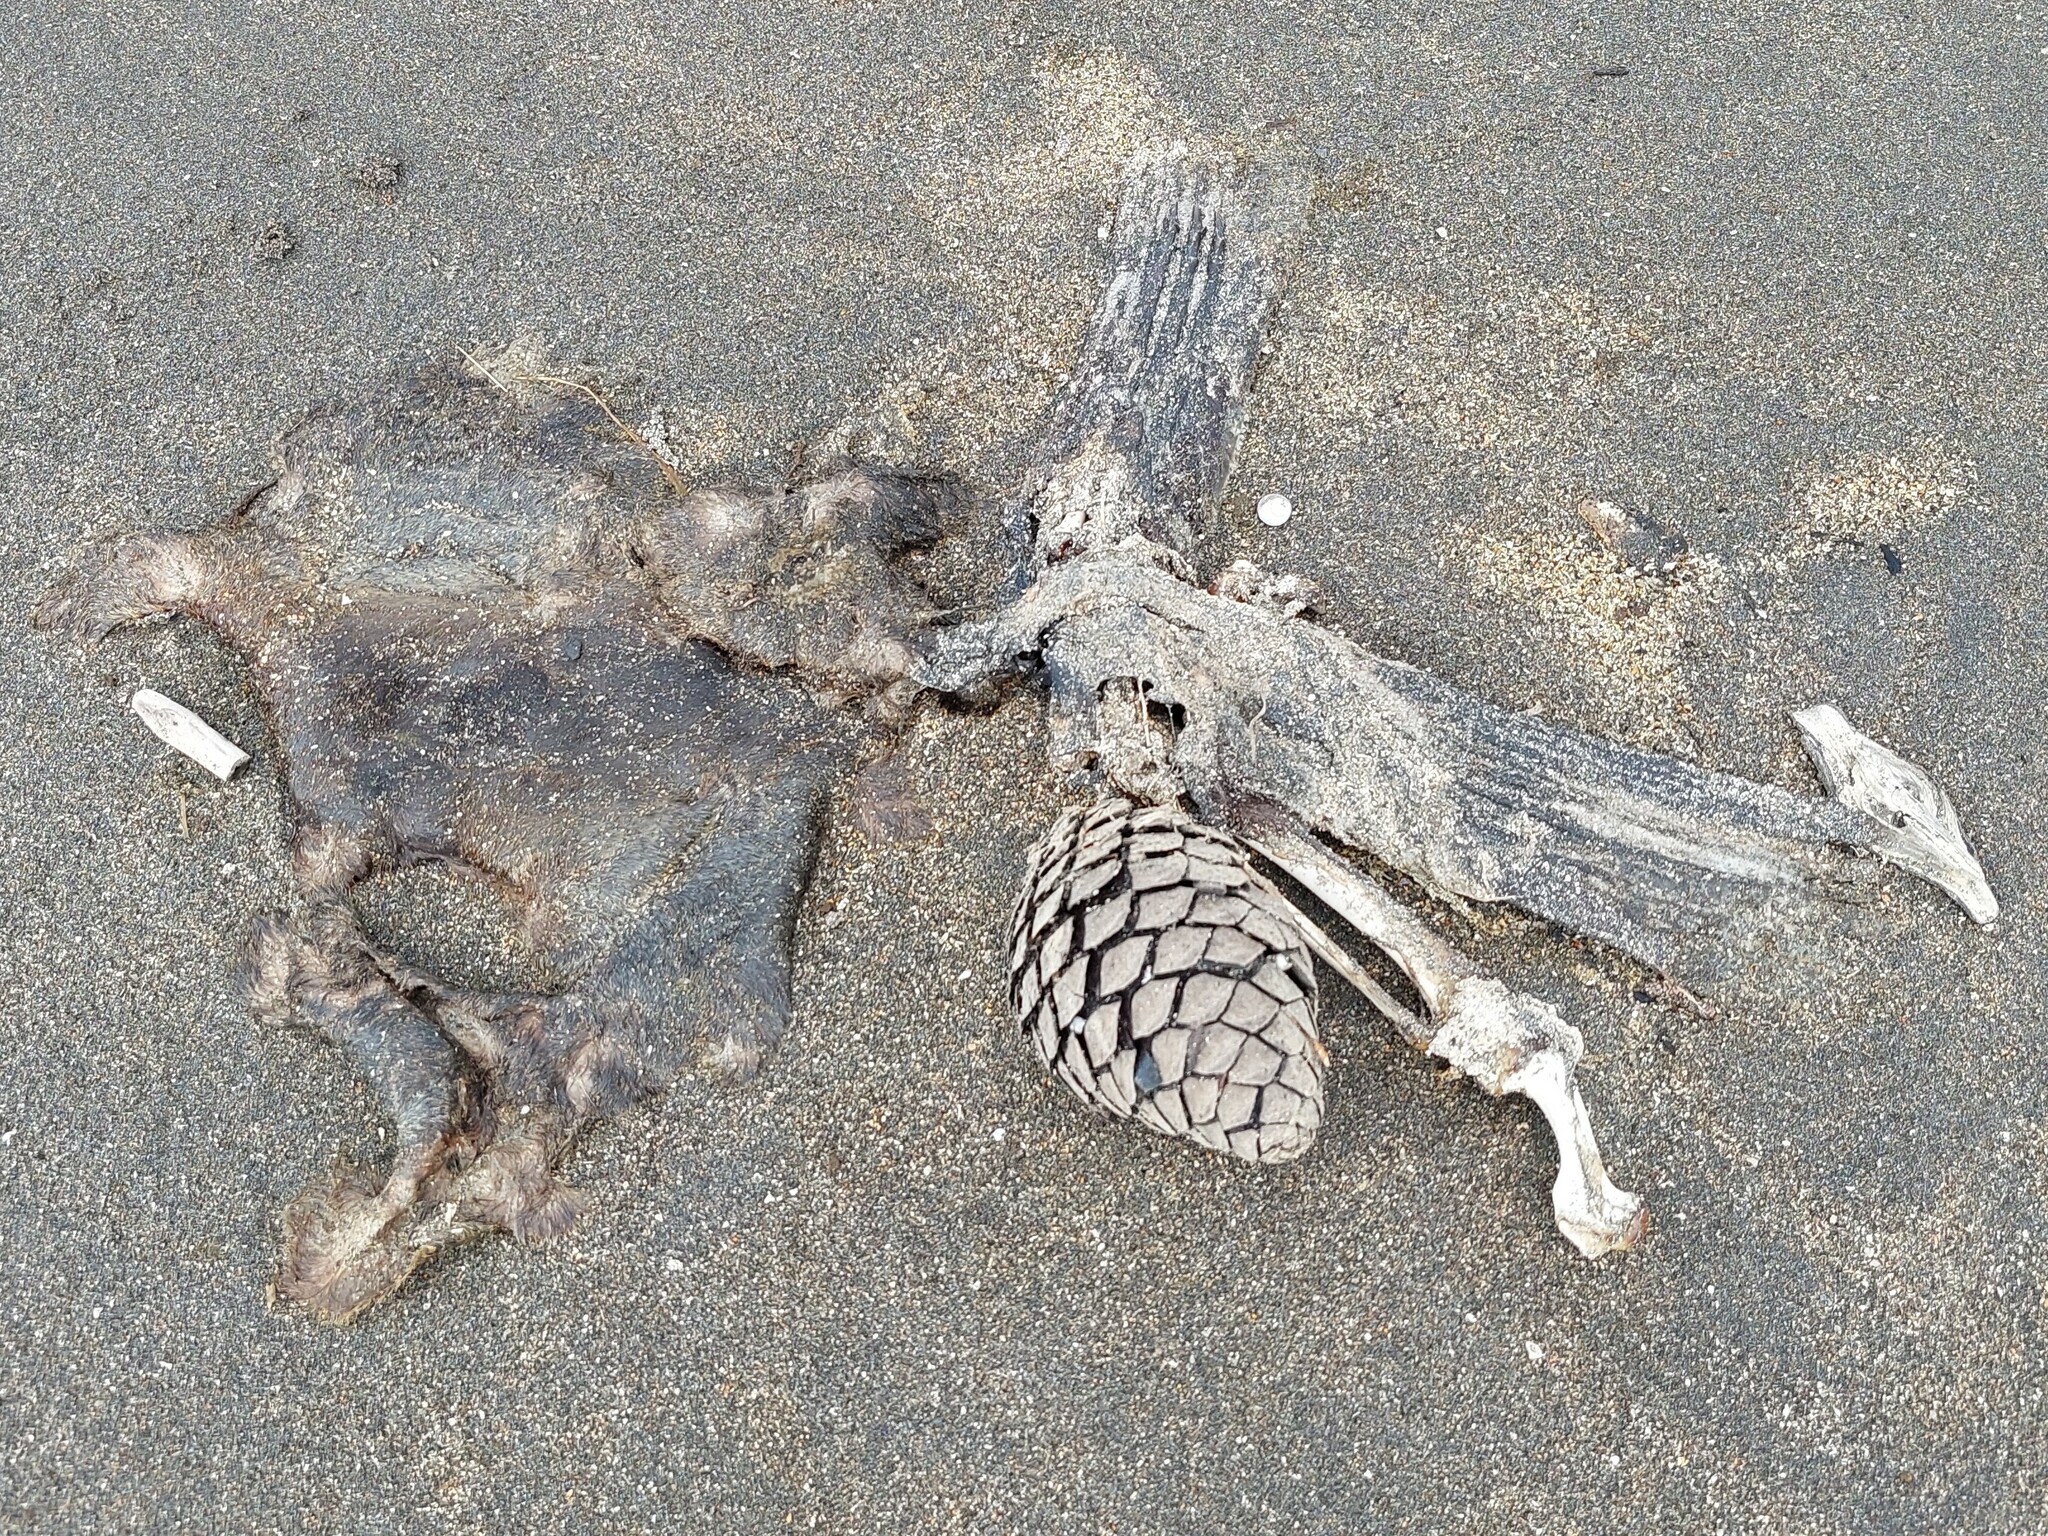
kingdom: Animalia
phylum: Chordata
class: Mammalia
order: Carnivora
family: Otariidae
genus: Arctocephalus
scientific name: Arctocephalus forsteri
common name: New zealand fur seal
